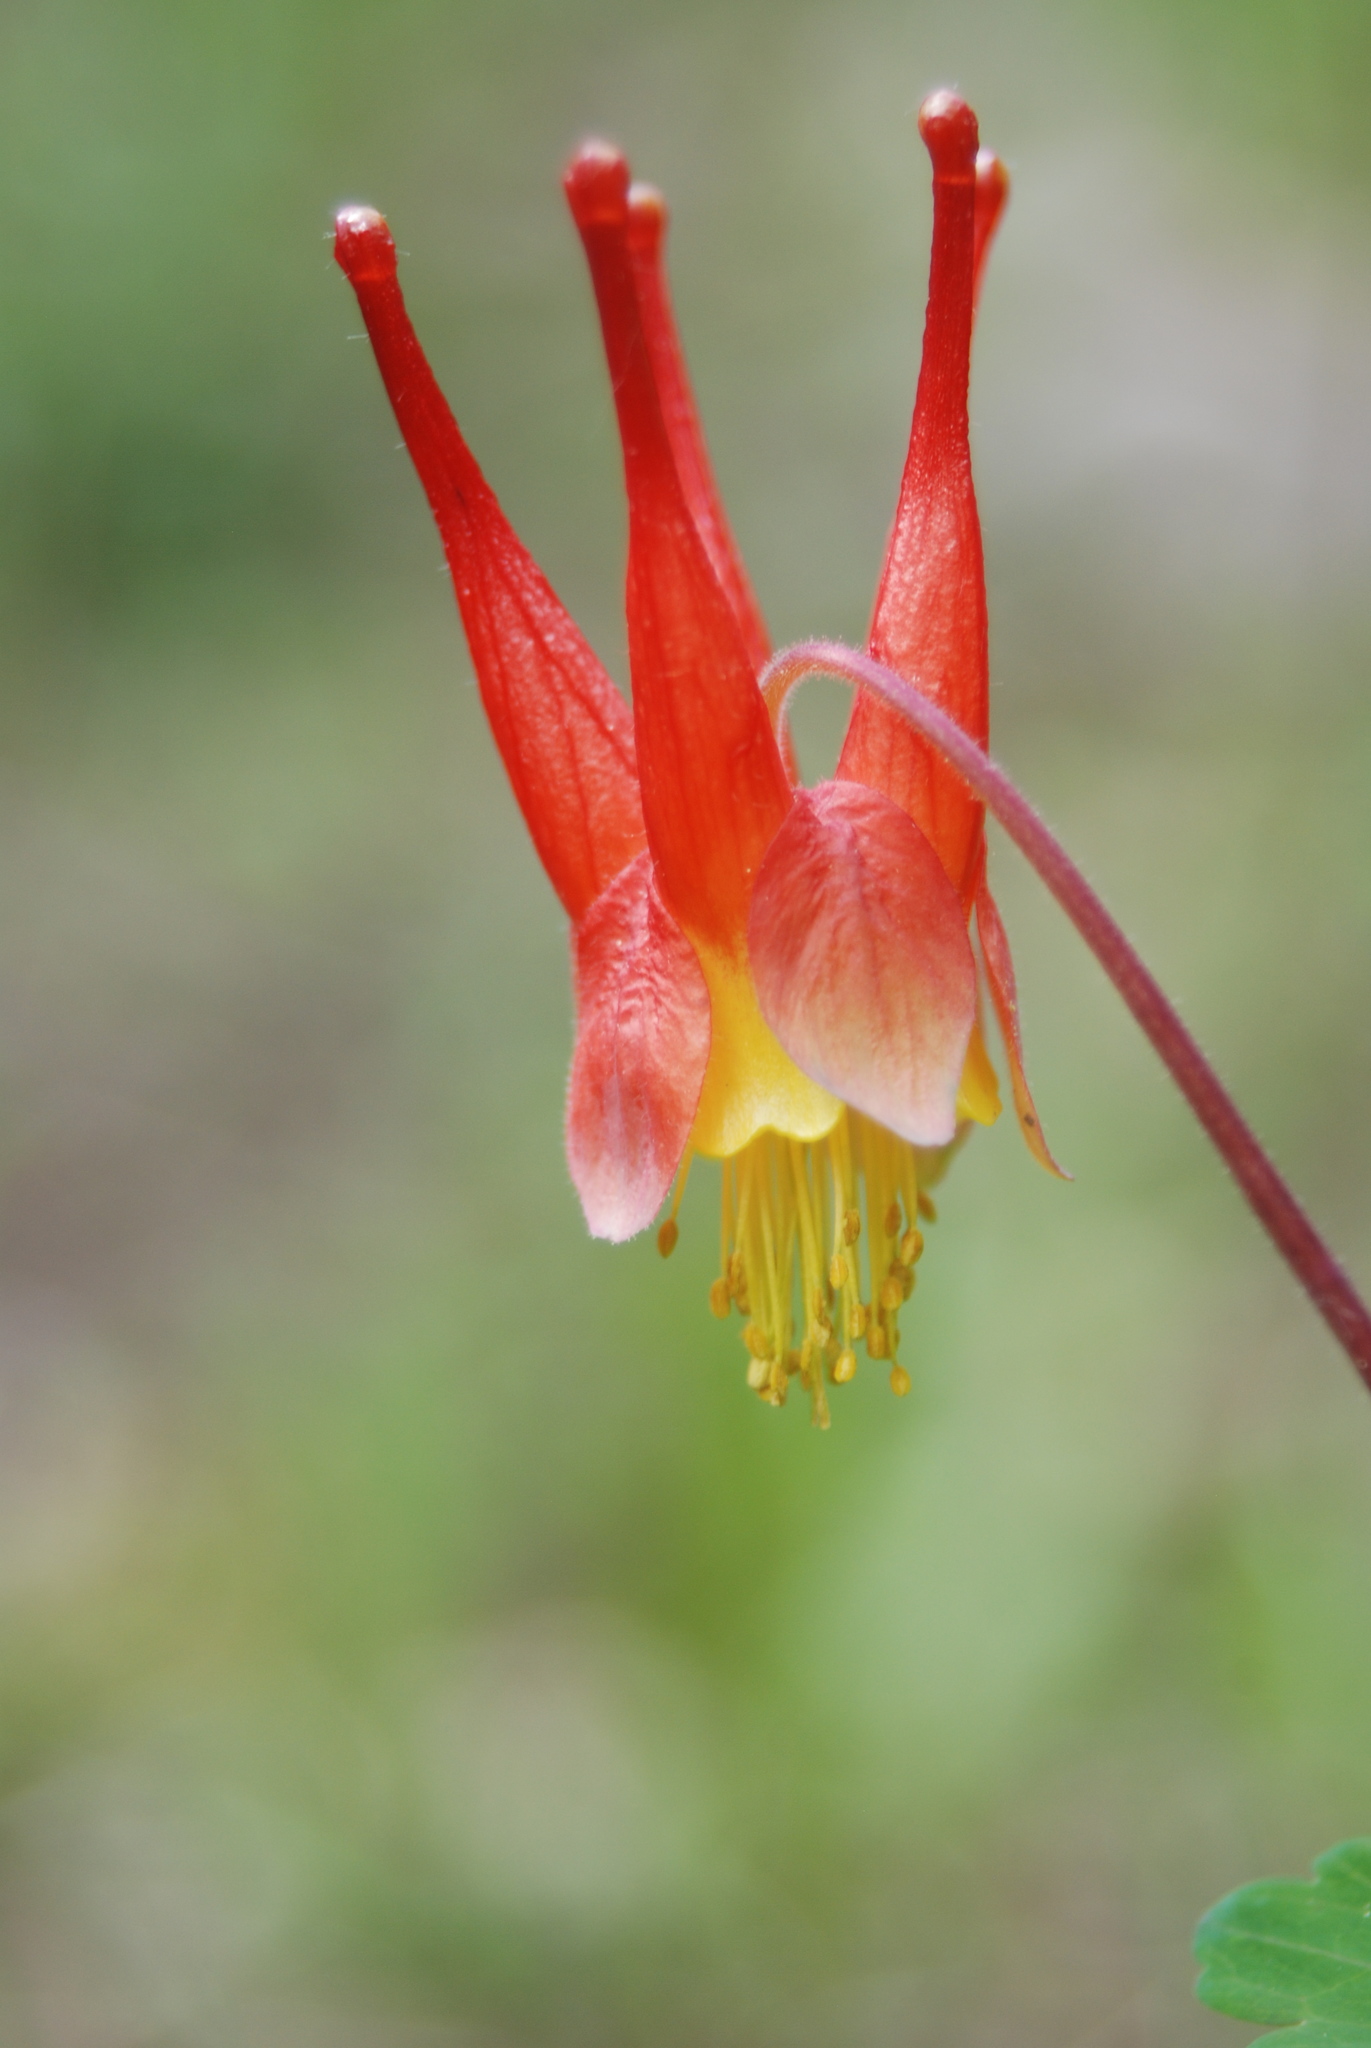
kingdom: Plantae
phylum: Tracheophyta
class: Magnoliopsida
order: Ranunculales
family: Ranunculaceae
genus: Aquilegia
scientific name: Aquilegia elegantula
